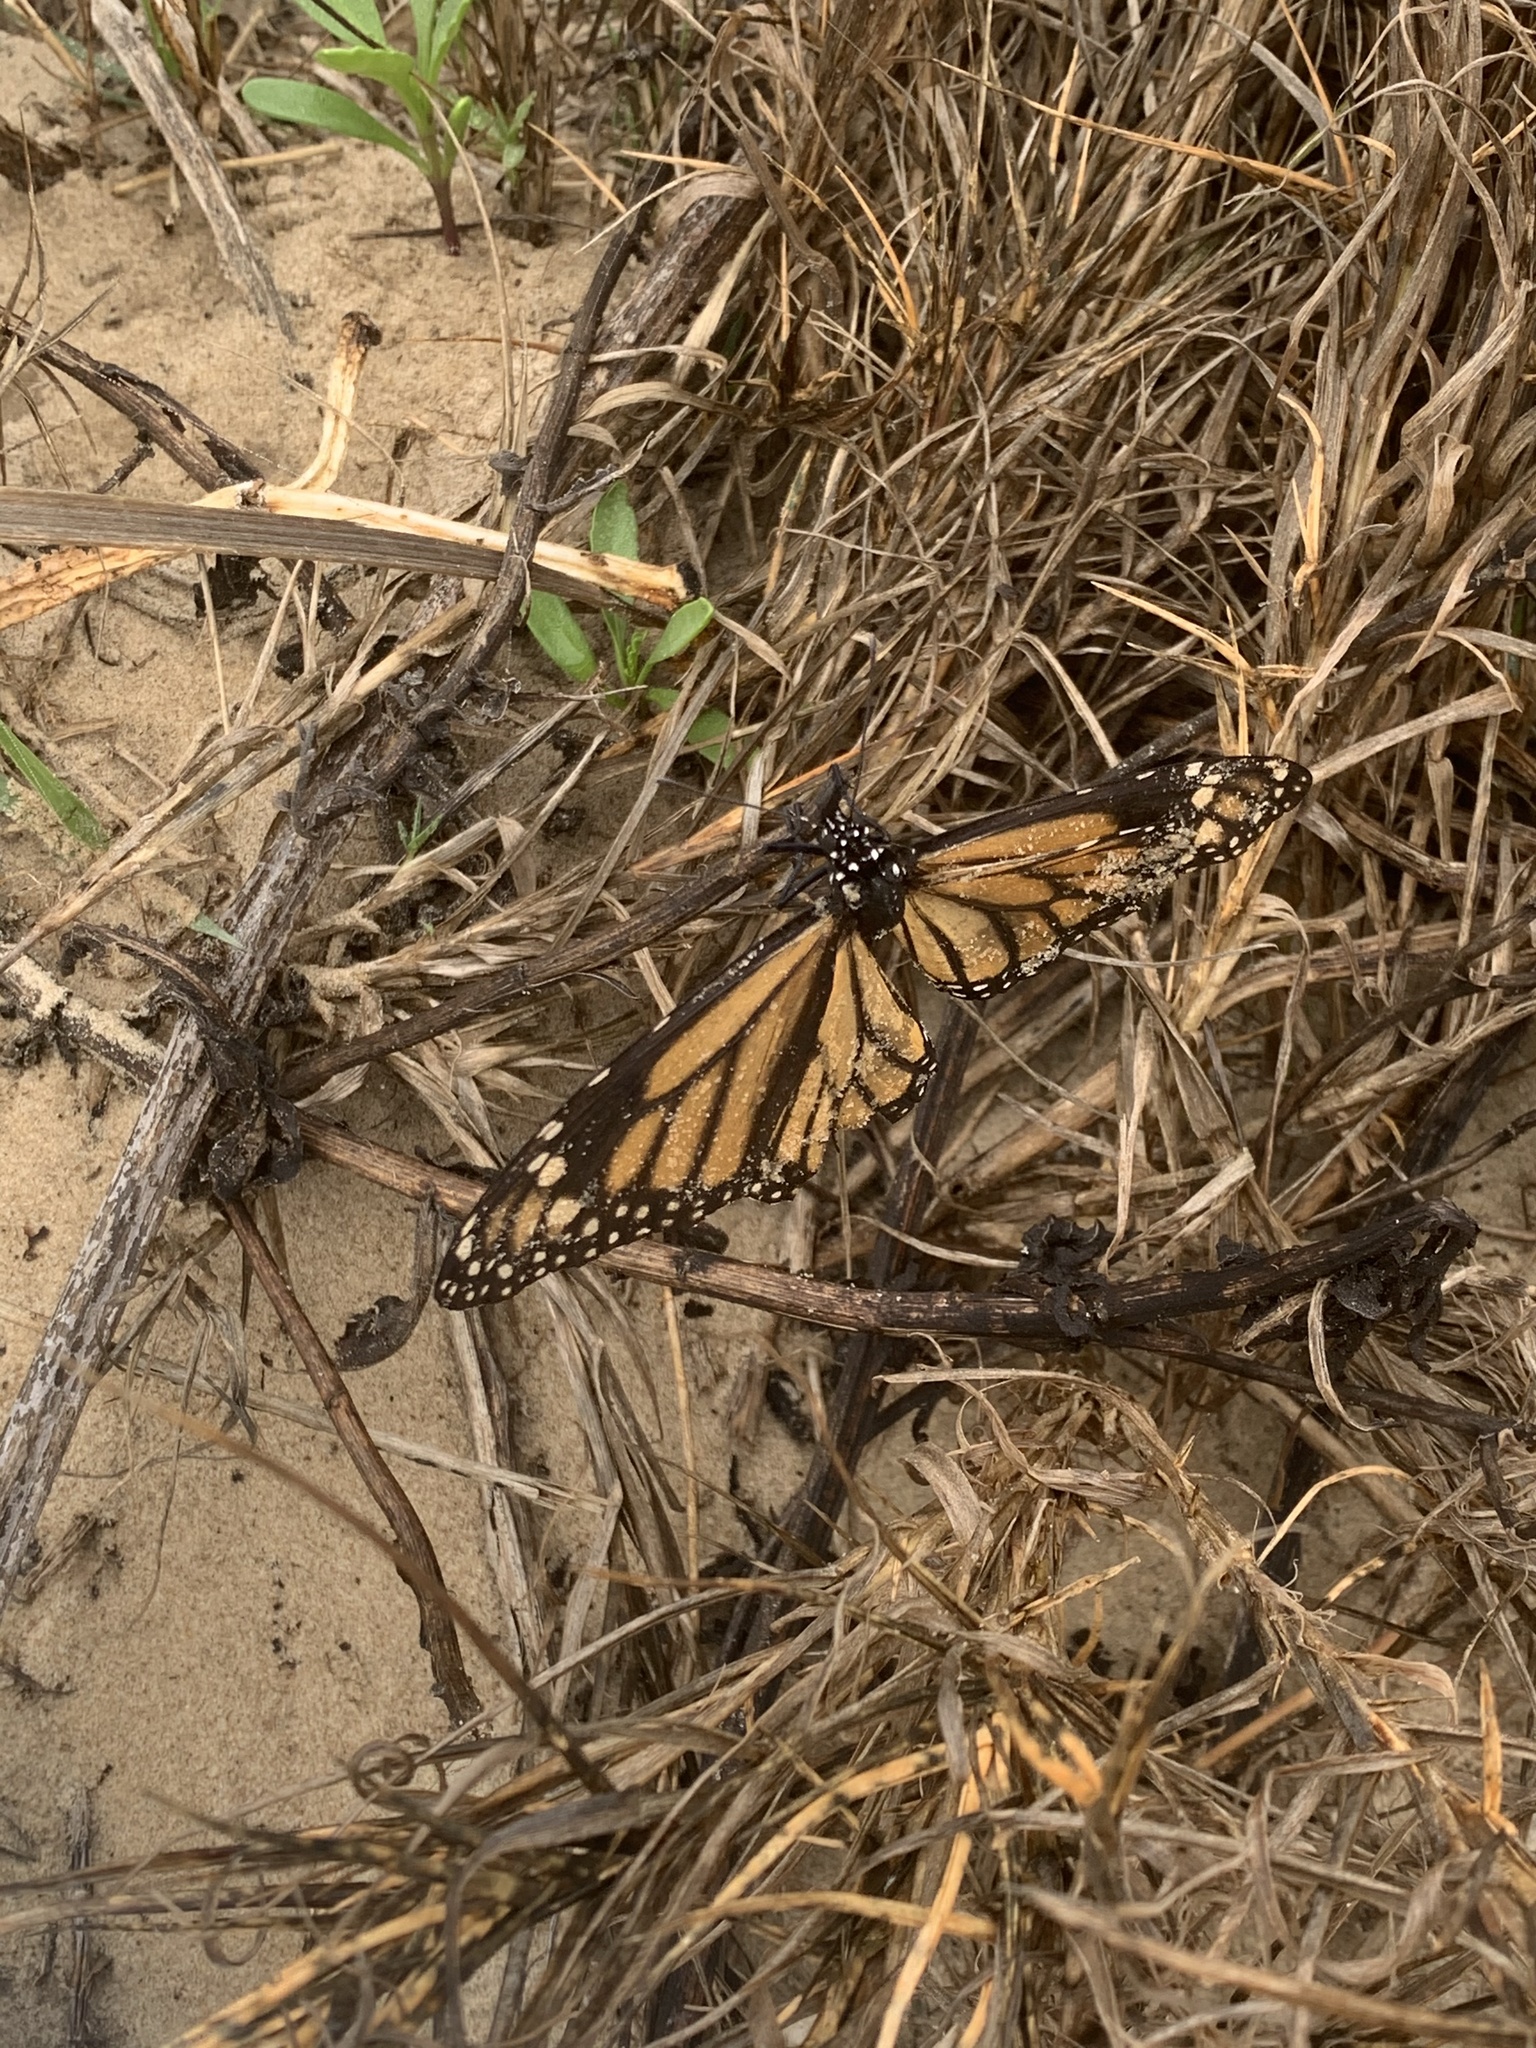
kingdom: Animalia
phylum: Arthropoda
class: Insecta
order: Lepidoptera
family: Nymphalidae
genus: Danaus
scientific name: Danaus plexippus
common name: Monarch
